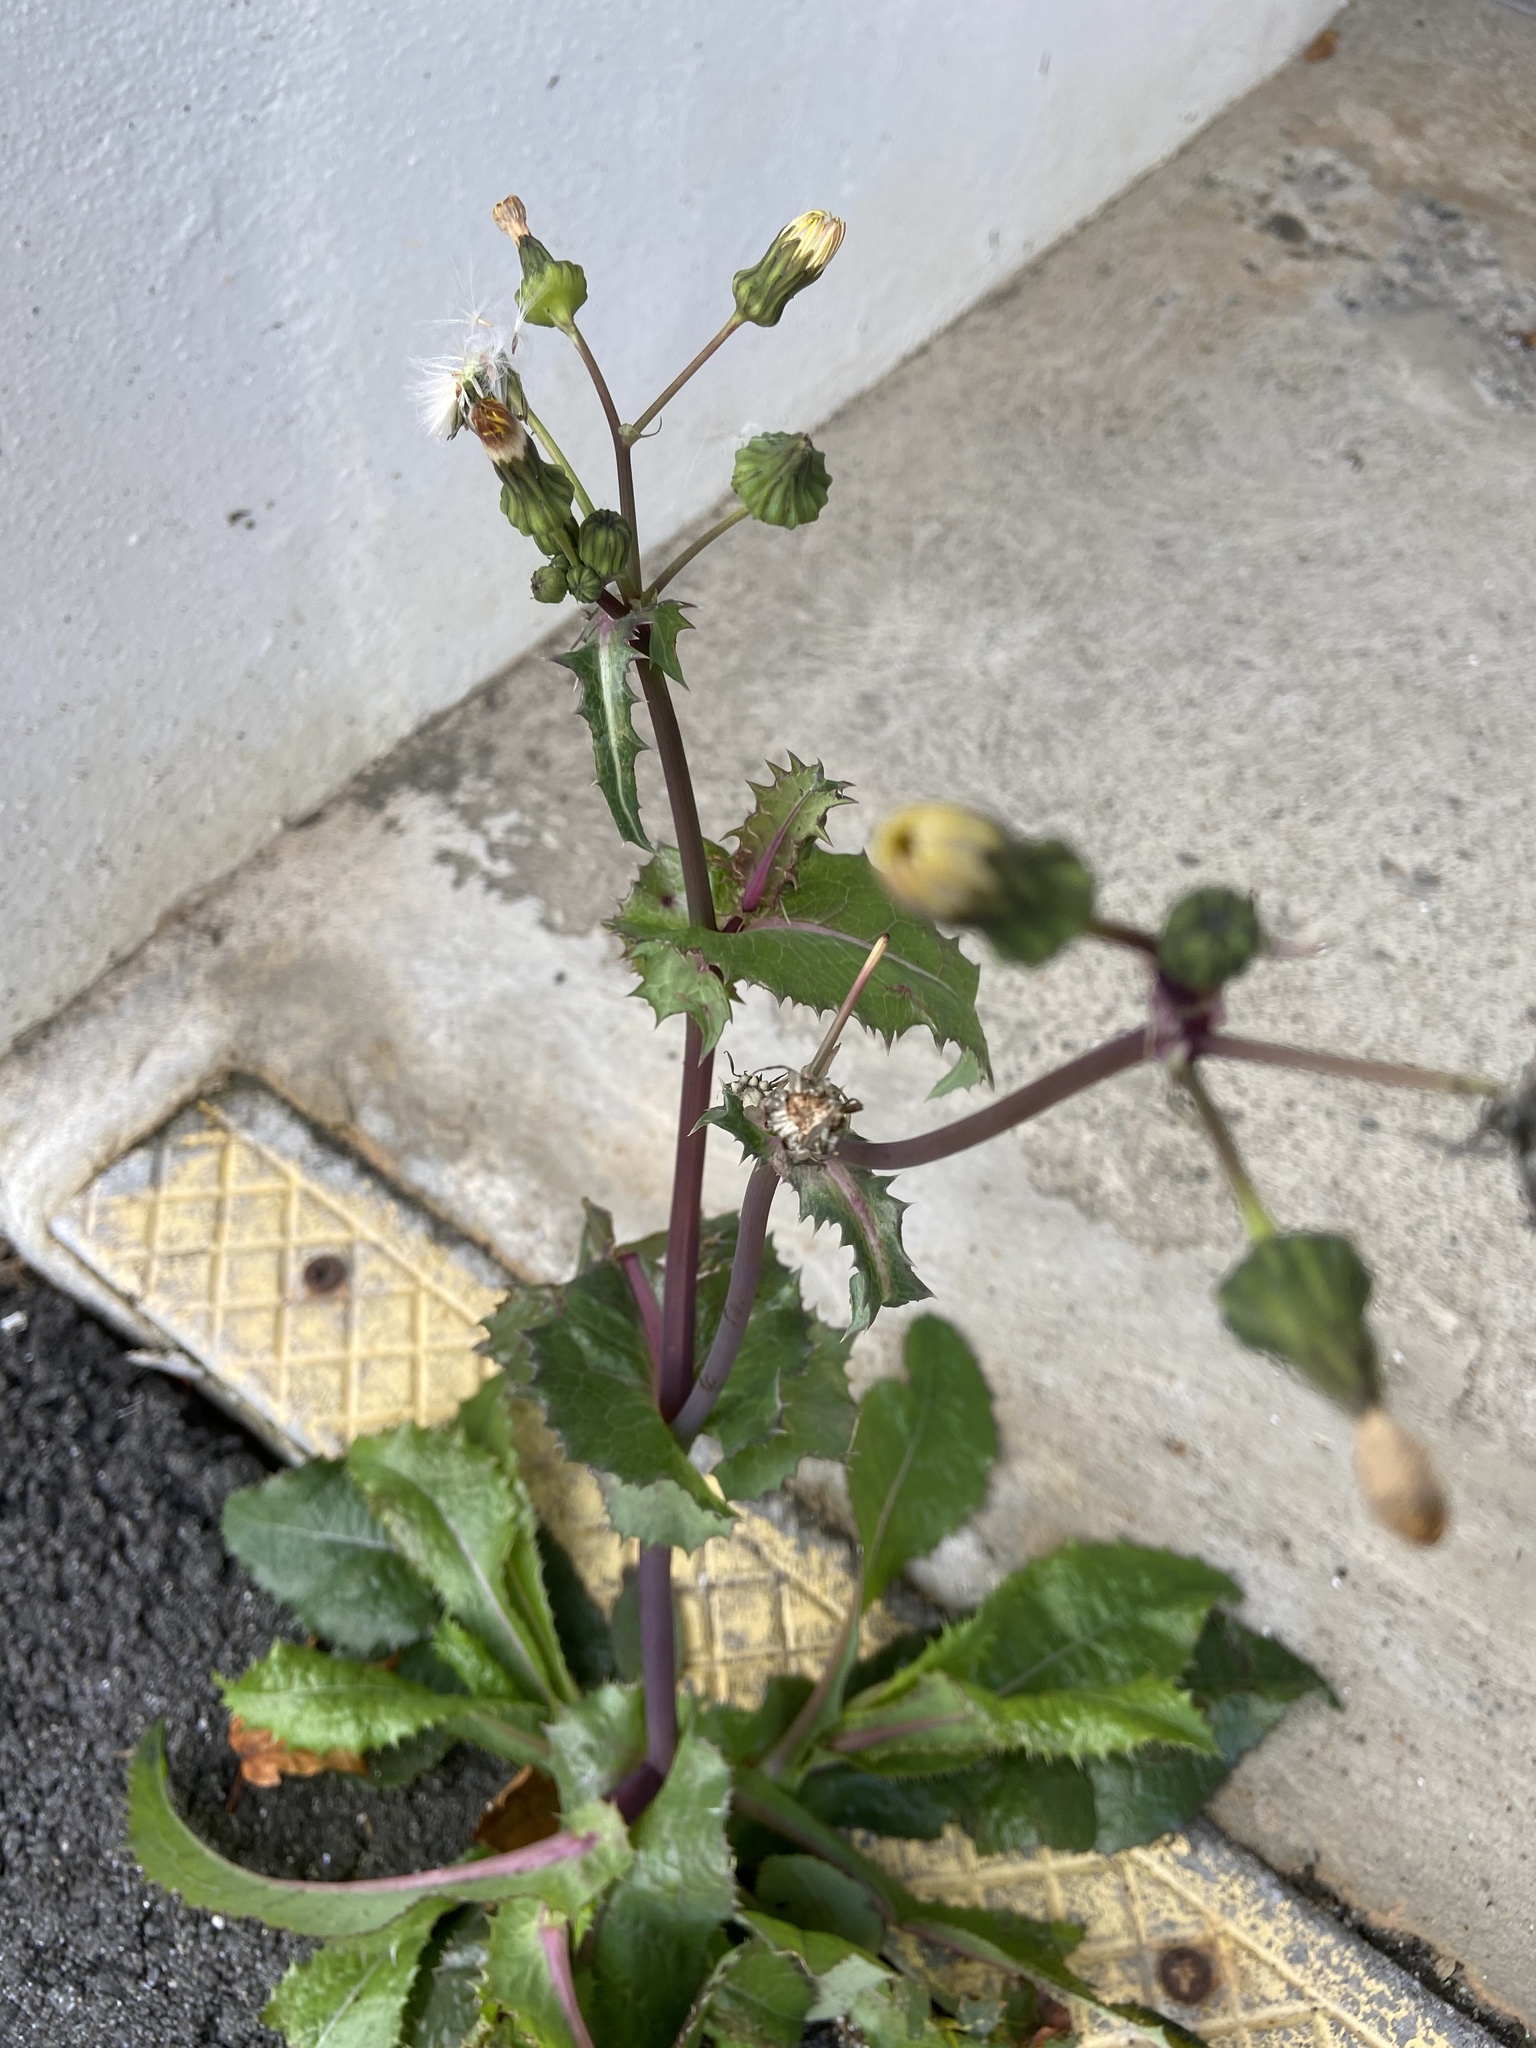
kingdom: Plantae
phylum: Tracheophyta
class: Magnoliopsida
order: Asterales
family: Asteraceae
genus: Sonchus
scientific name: Sonchus asper
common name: Prickly sow-thistle
